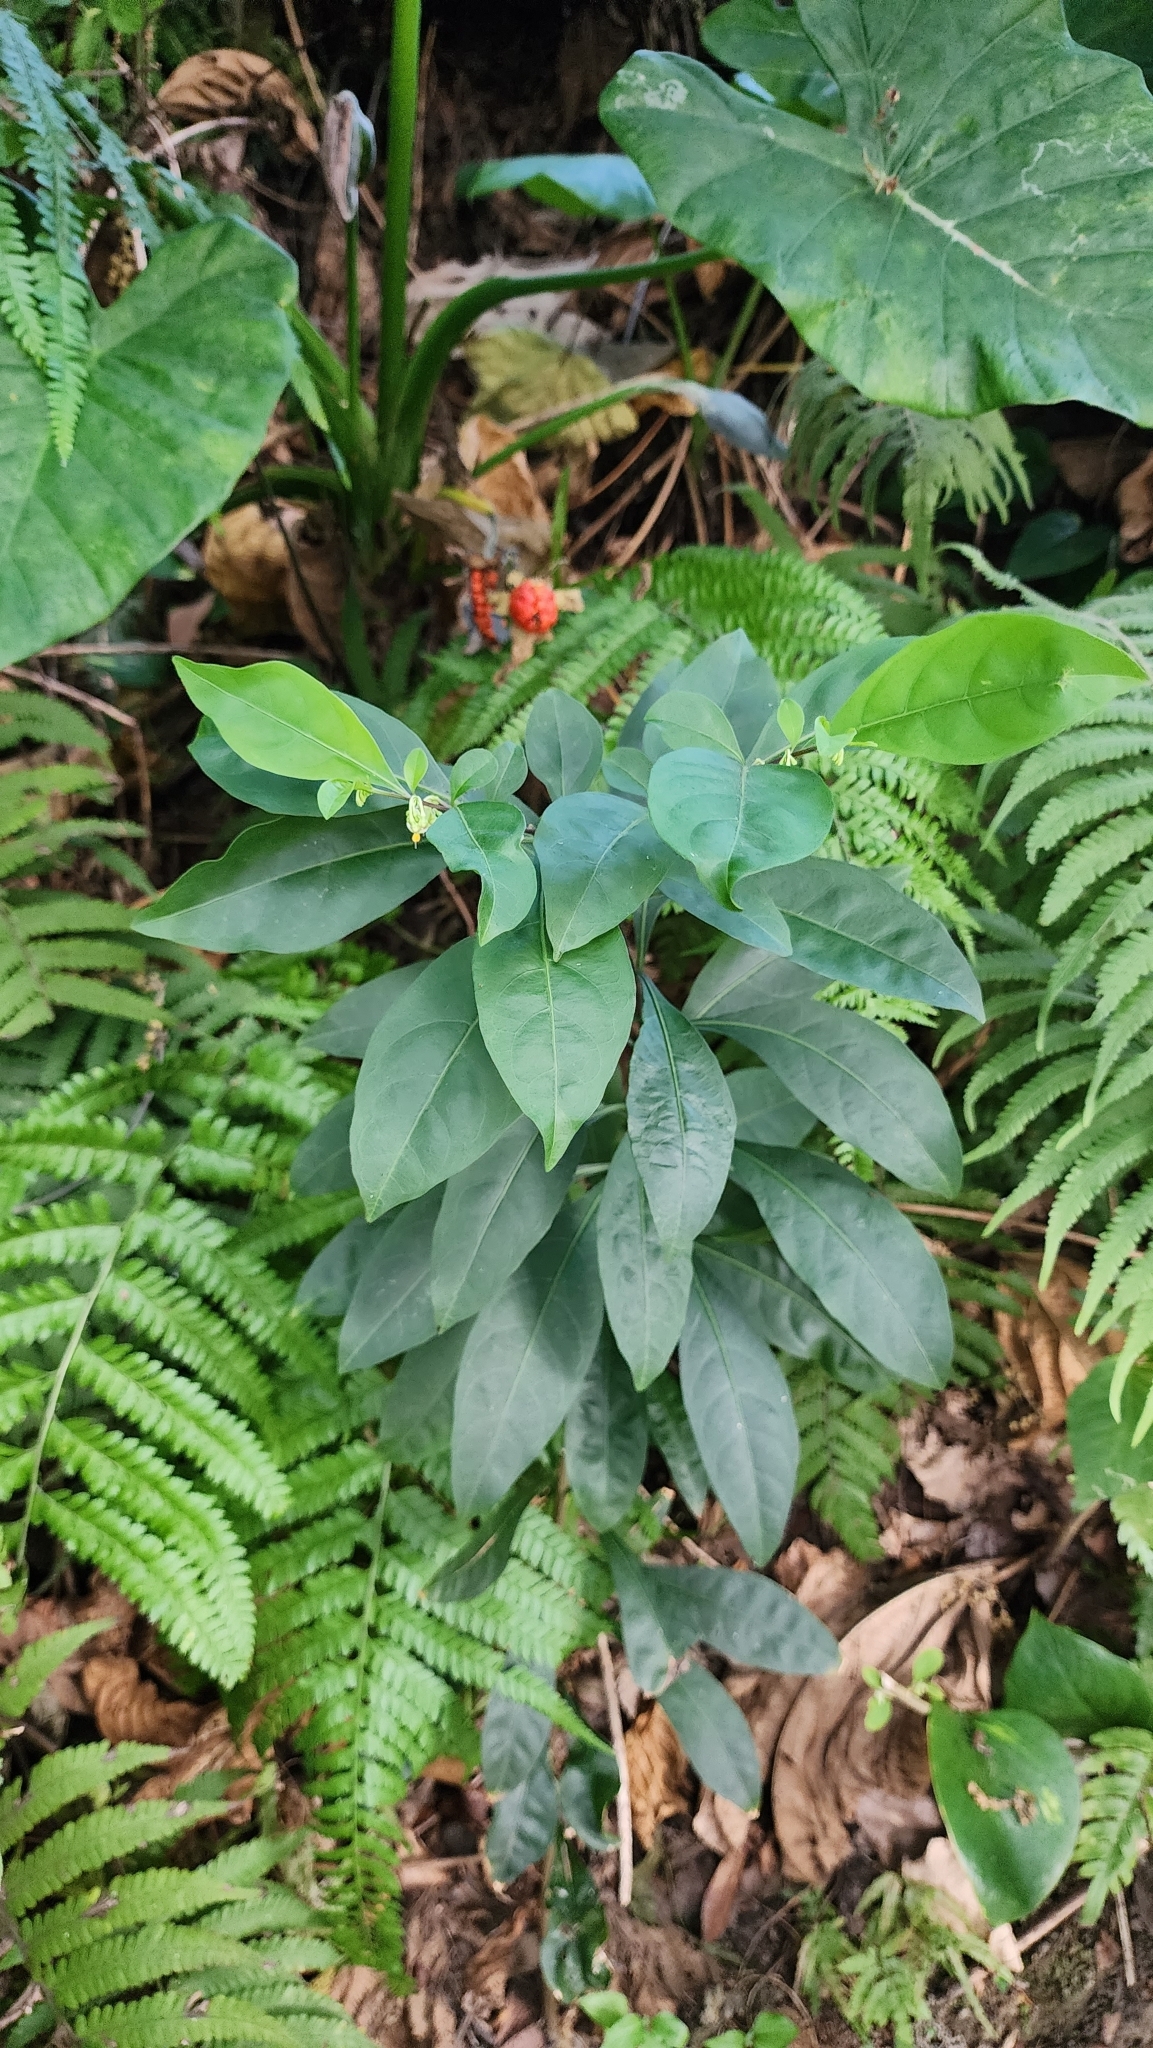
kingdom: Plantae
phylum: Tracheophyta
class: Magnoliopsida
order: Solanales
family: Solanaceae
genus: Solanum
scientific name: Solanum diphyllum
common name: Twoleaf nightshade
